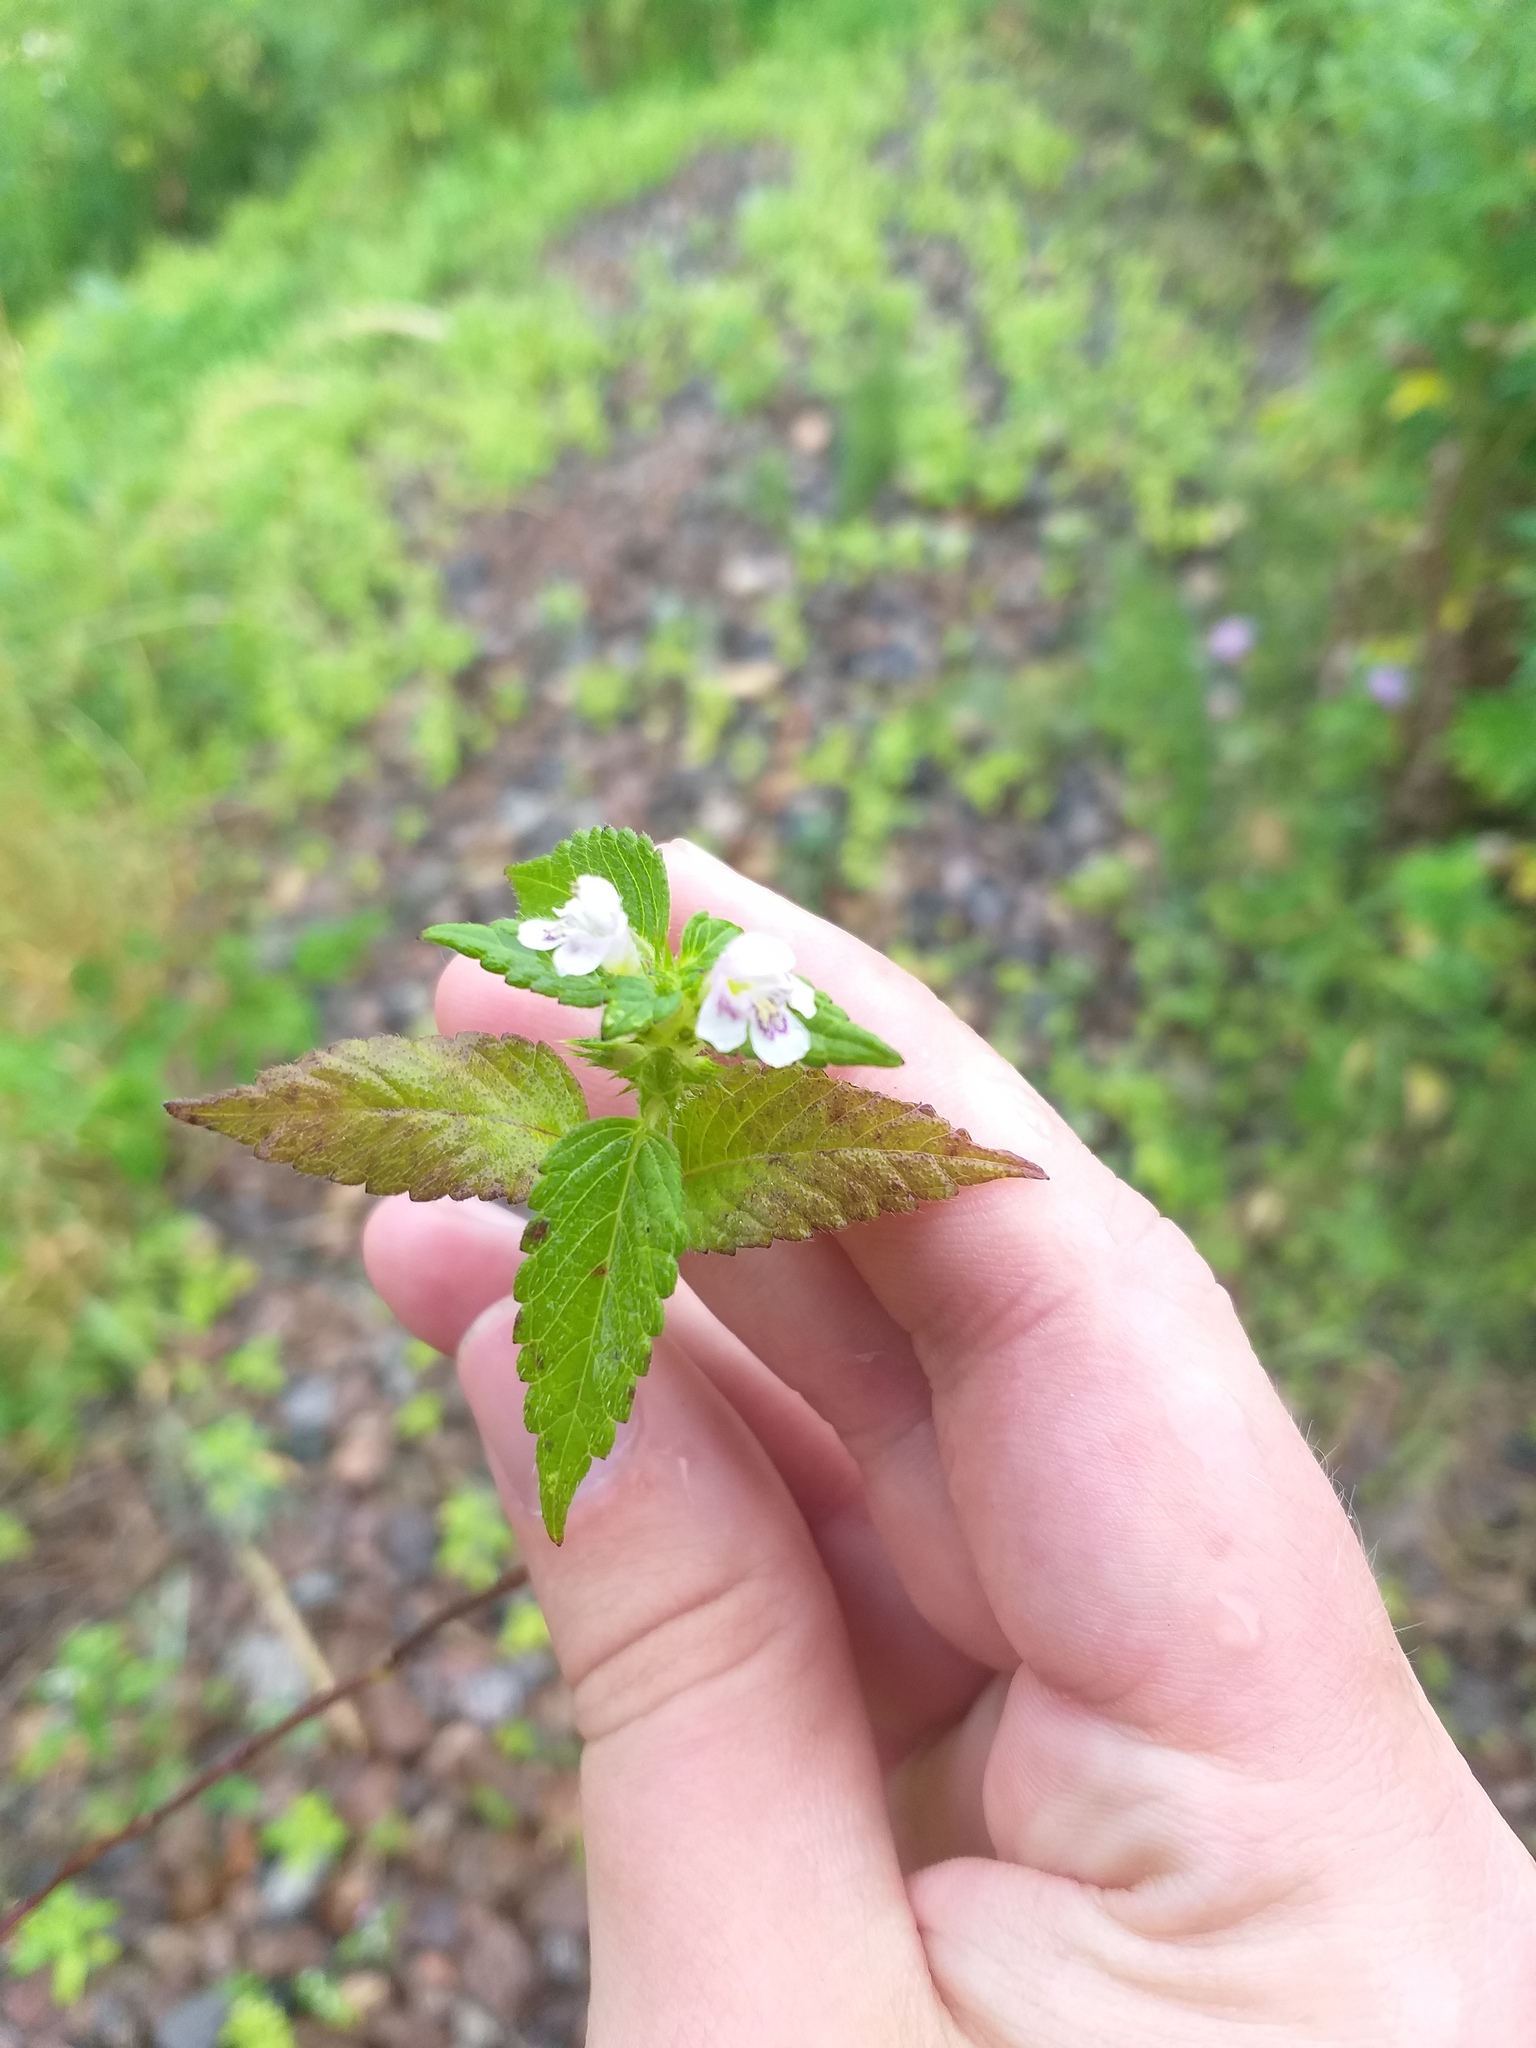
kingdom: Plantae
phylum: Tracheophyta
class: Magnoliopsida
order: Lamiales
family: Lamiaceae
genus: Galeopsis
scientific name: Galeopsis tetrahit
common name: Common hemp-nettle
